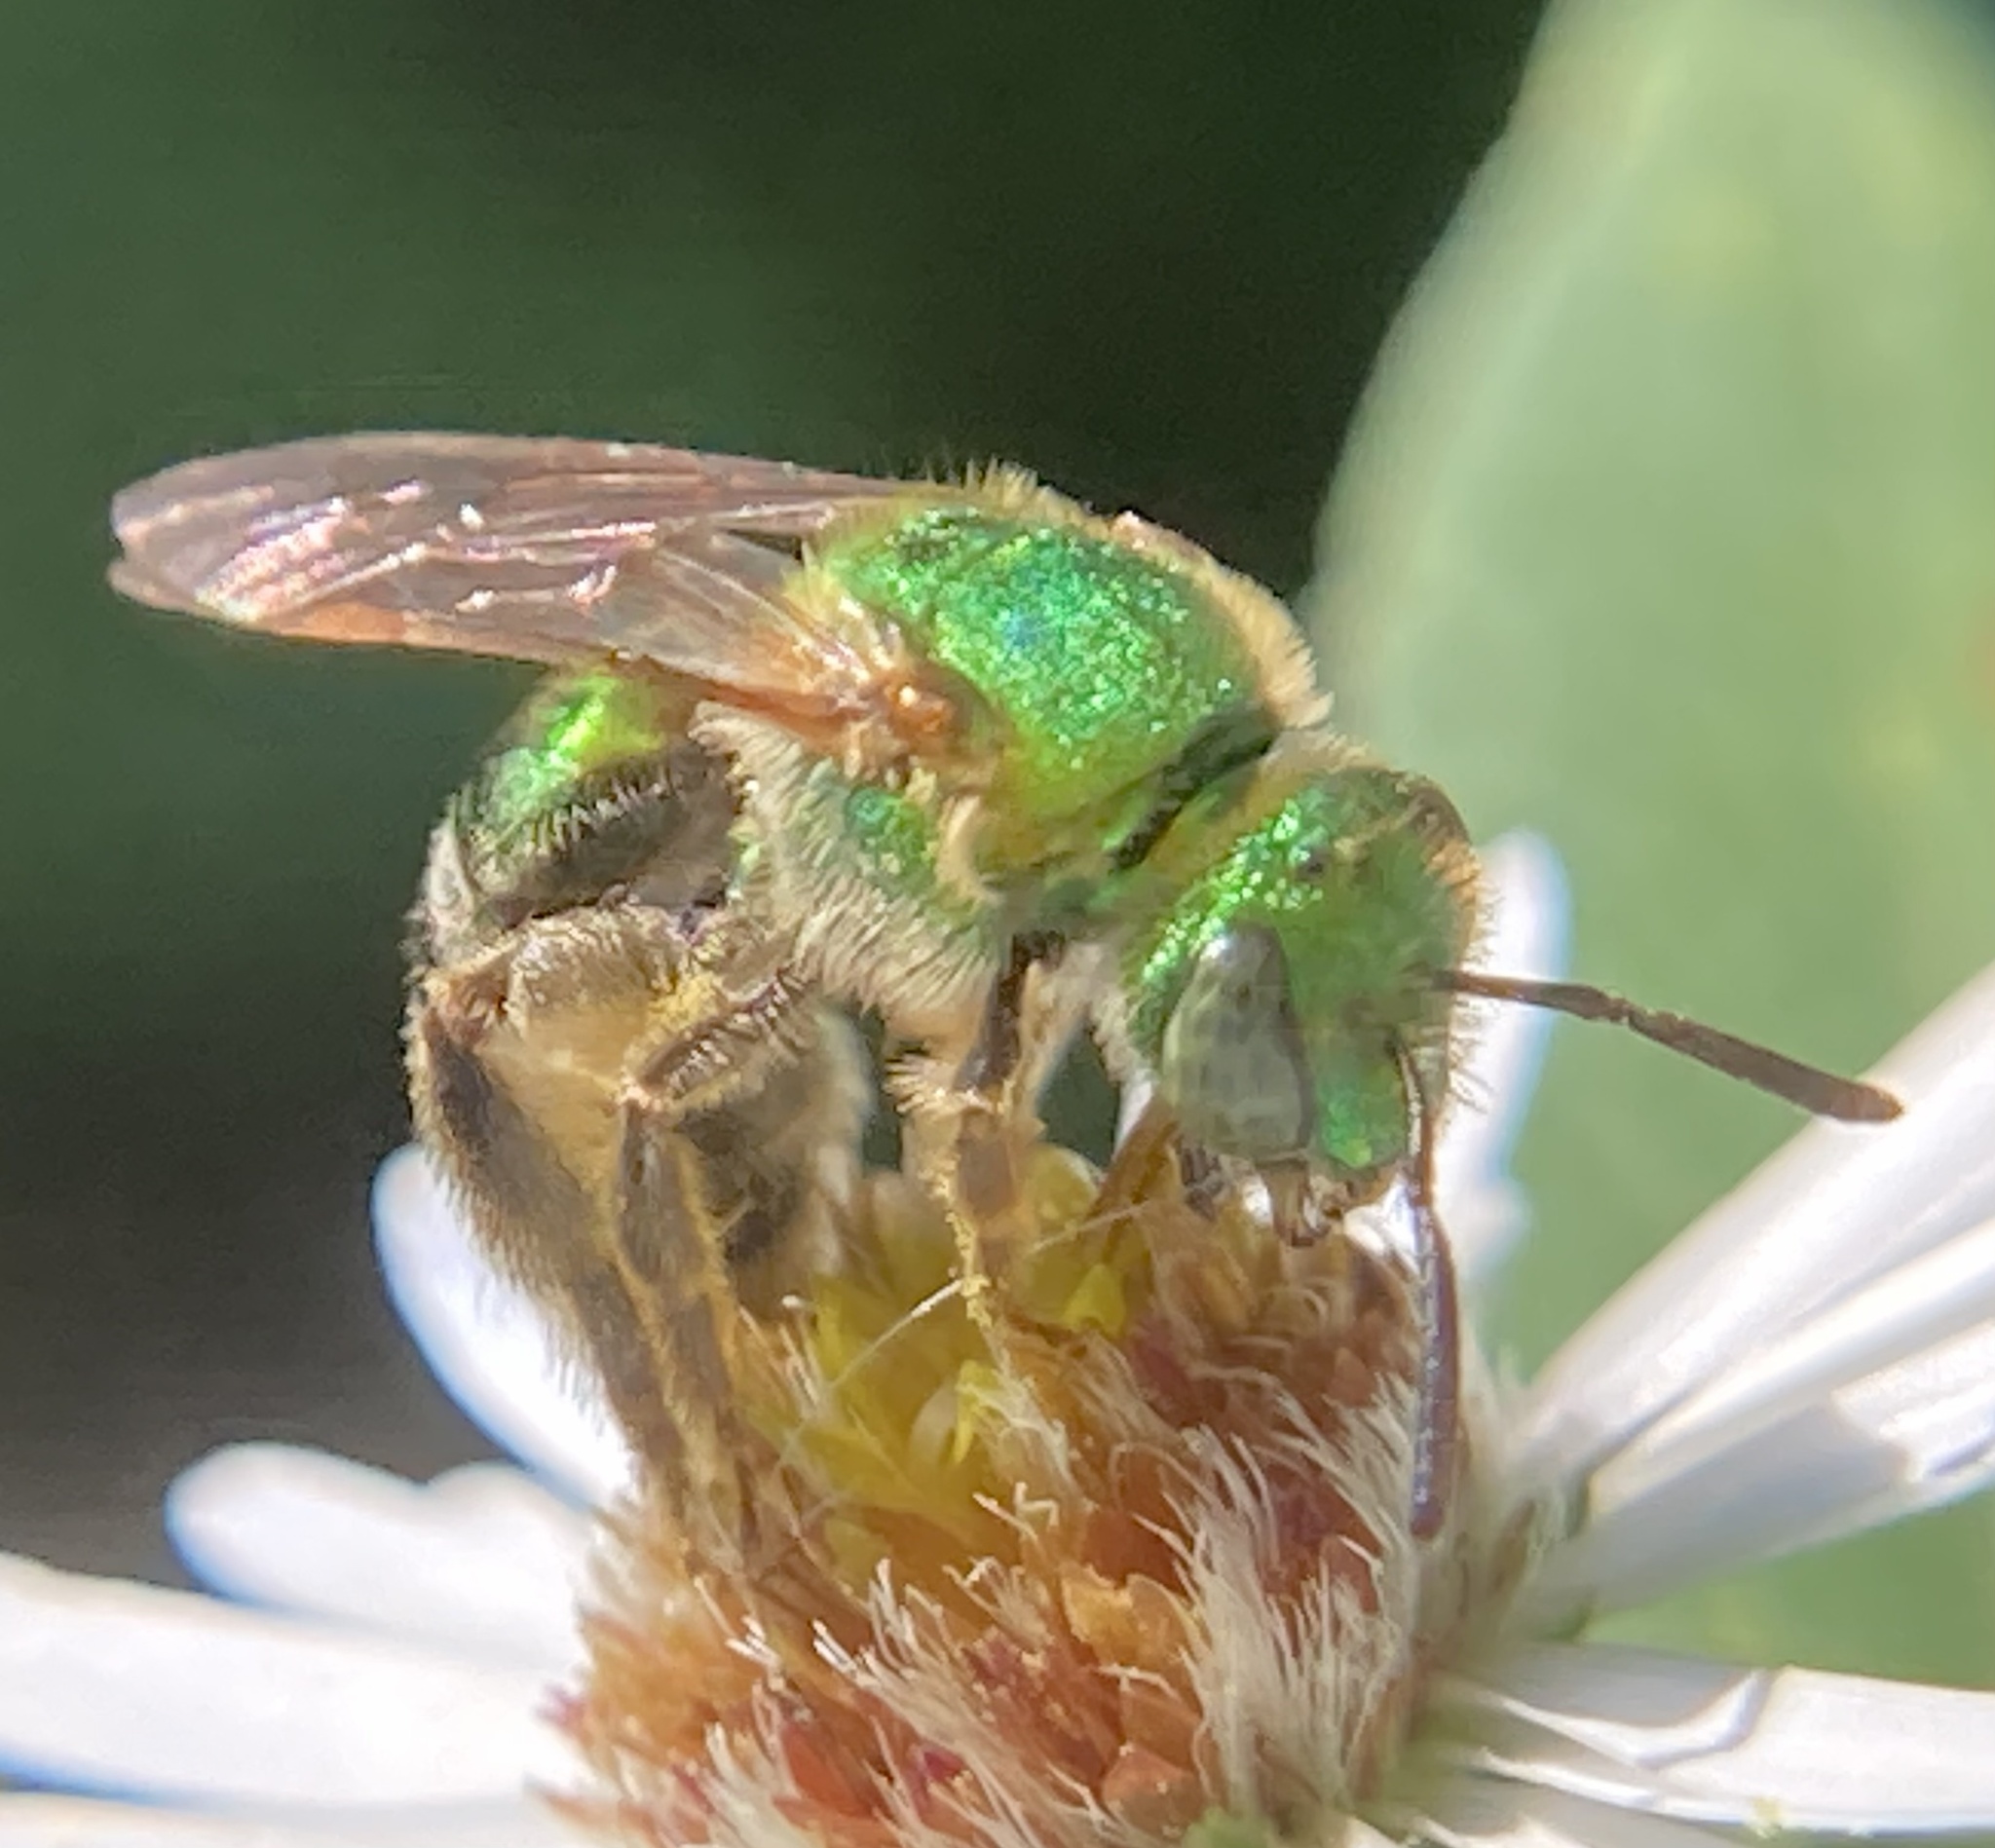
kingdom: Animalia
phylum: Arthropoda
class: Insecta
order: Hymenoptera
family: Halictidae
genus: Agapostemon
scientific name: Agapostemon sericeus
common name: Silky striped sweat bee
